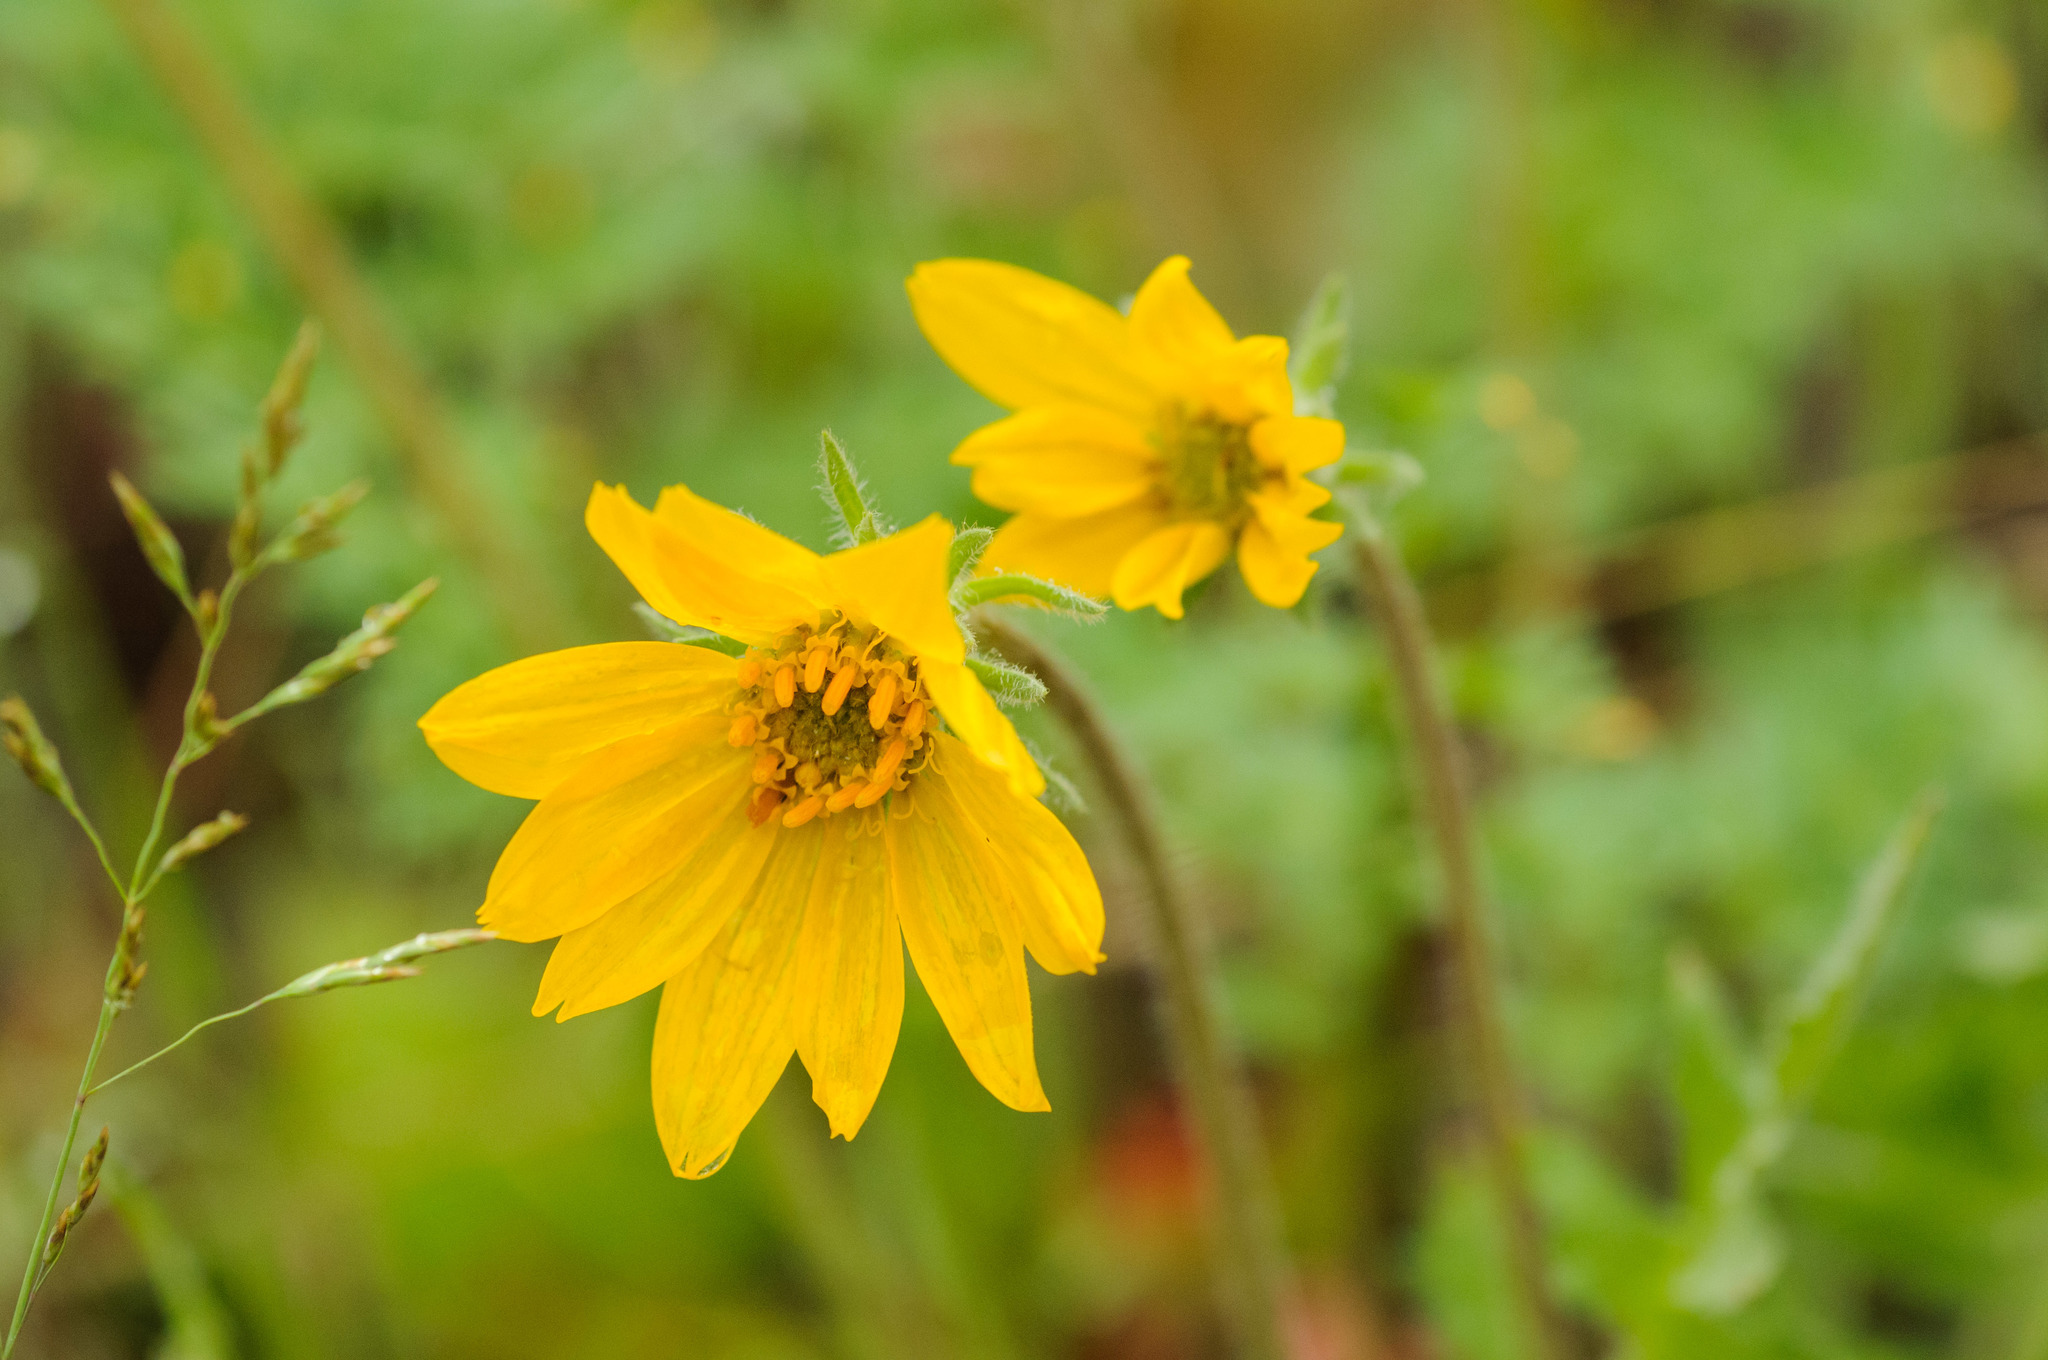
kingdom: Plantae
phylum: Tracheophyta
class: Magnoliopsida
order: Asterales
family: Asteraceae
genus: Balsamorhiza
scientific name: Balsamorhiza hookeri
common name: Hooker's balsamroot
